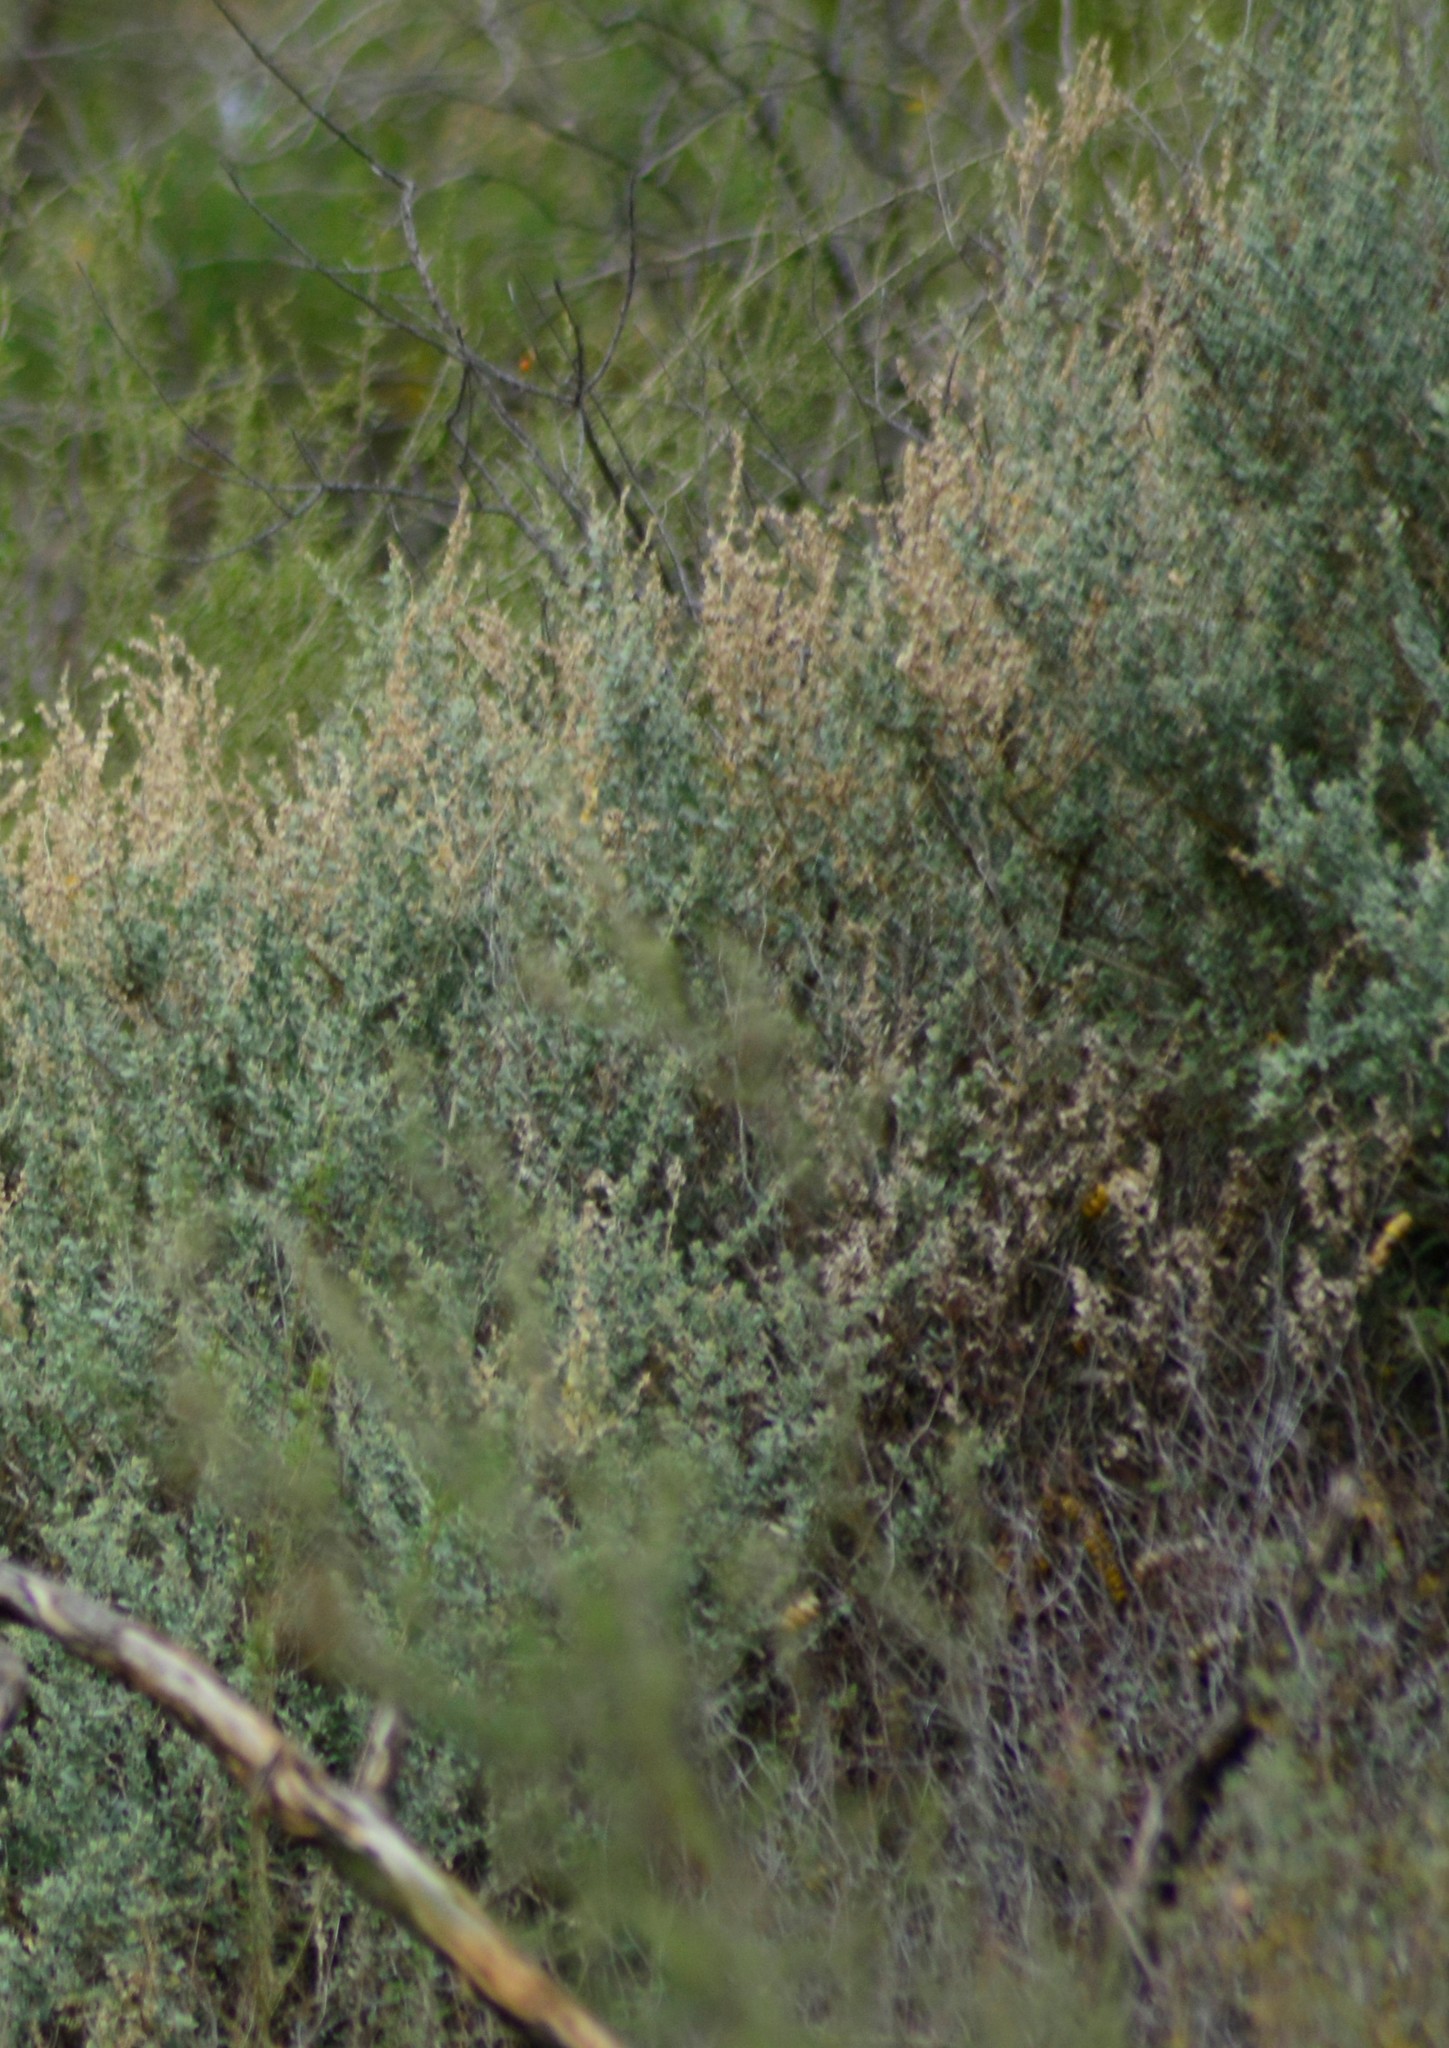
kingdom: Plantae
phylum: Tracheophyta
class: Magnoliopsida
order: Caryophyllales
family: Amaranthaceae
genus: Atriplex
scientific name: Atriplex undulata
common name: Wavy-leaved saltbush
